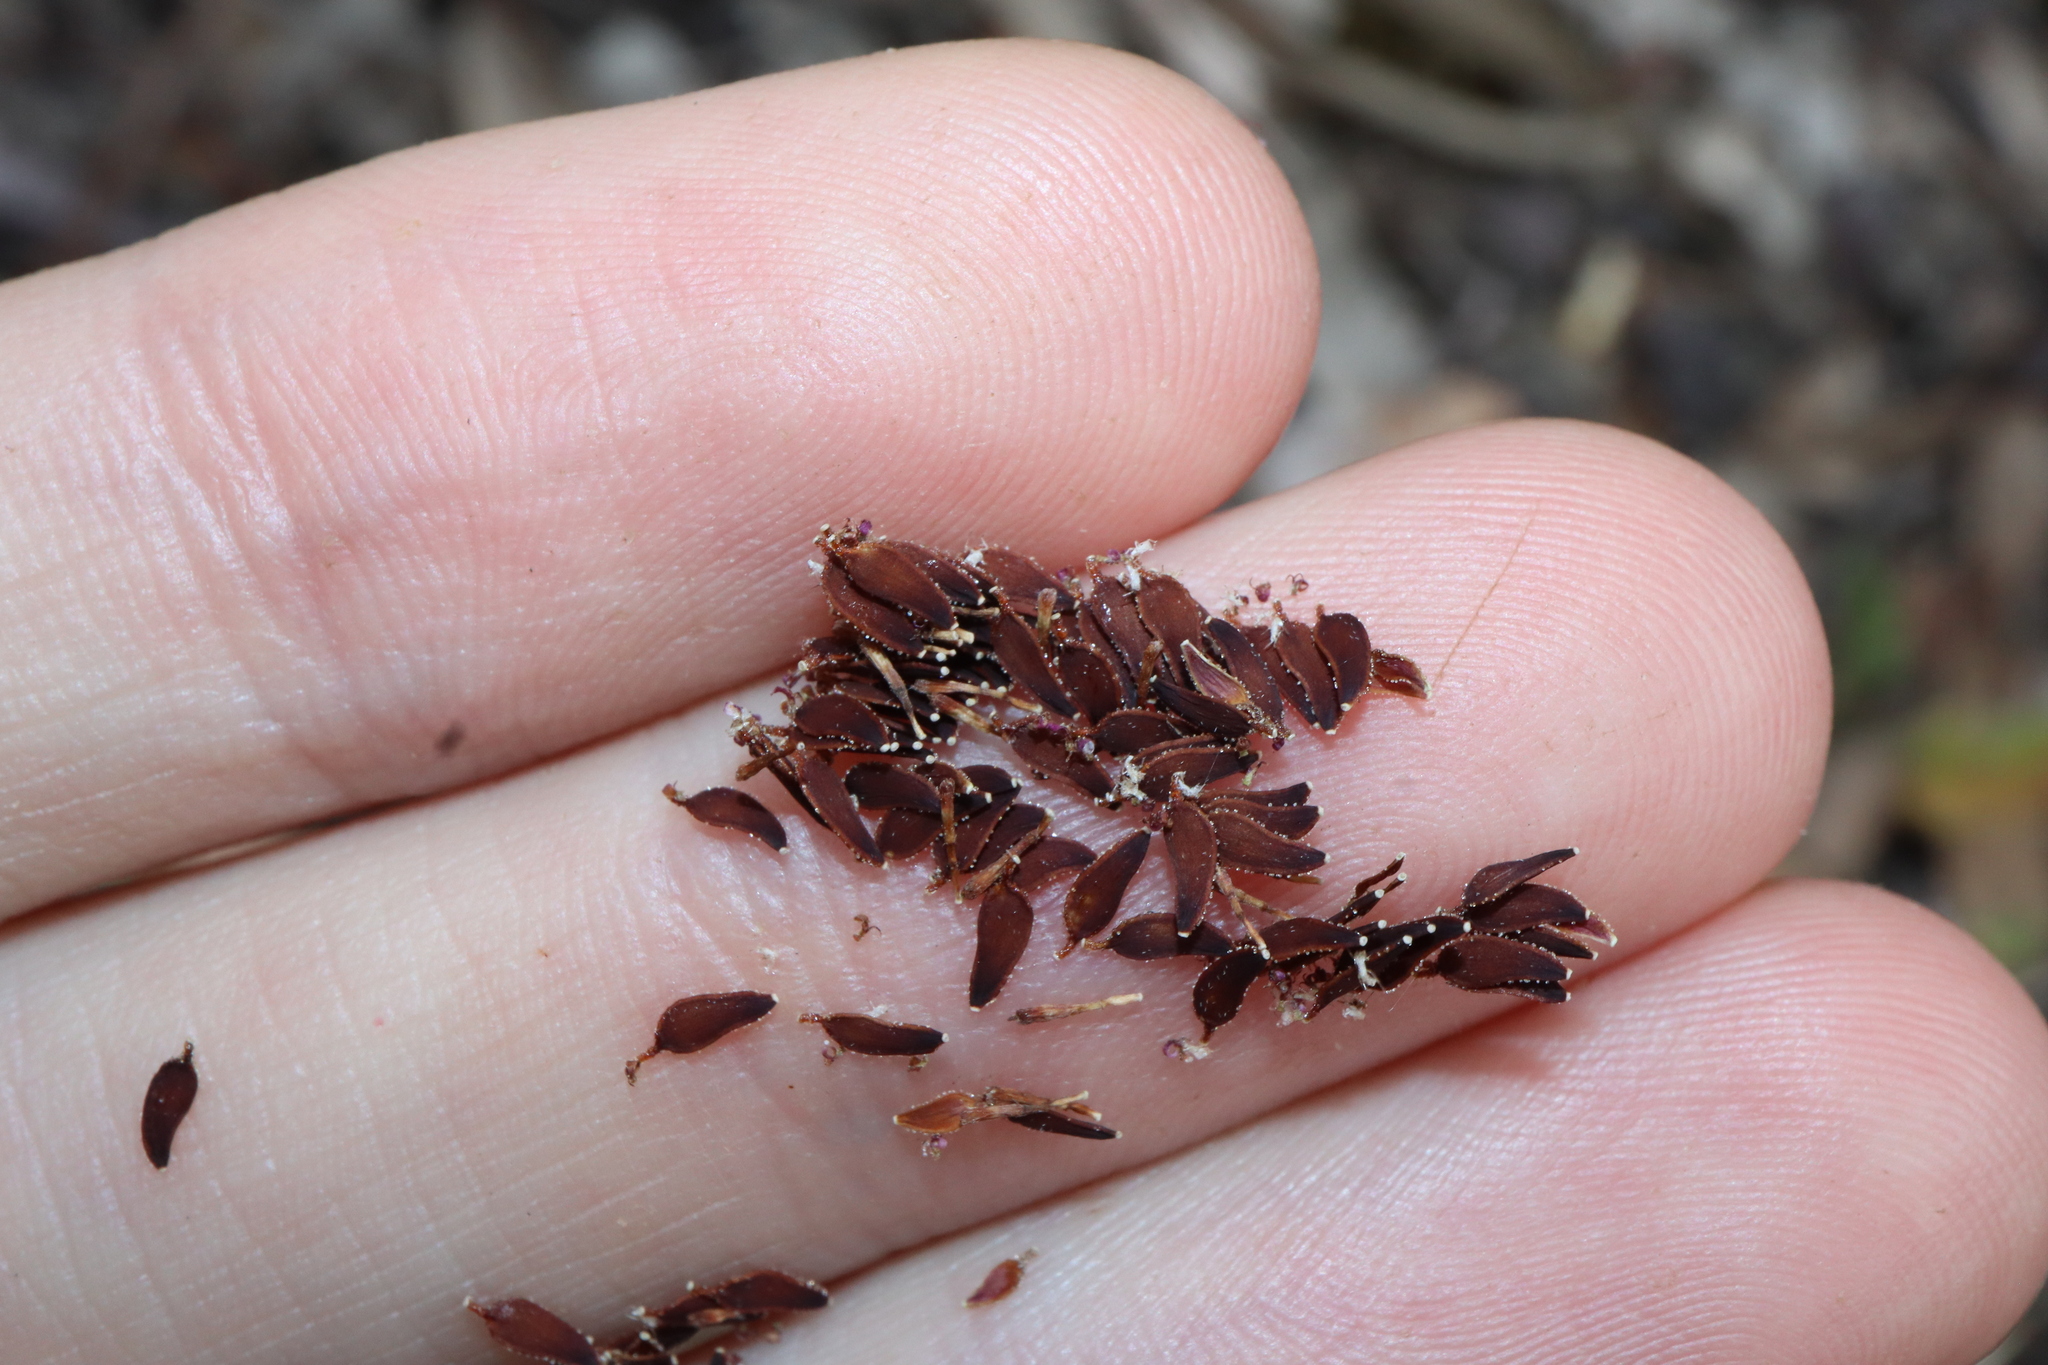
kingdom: Plantae
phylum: Tracheophyta
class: Magnoliopsida
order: Asterales
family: Asteraceae
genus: Lagenophora
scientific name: Lagenophora huegelii
